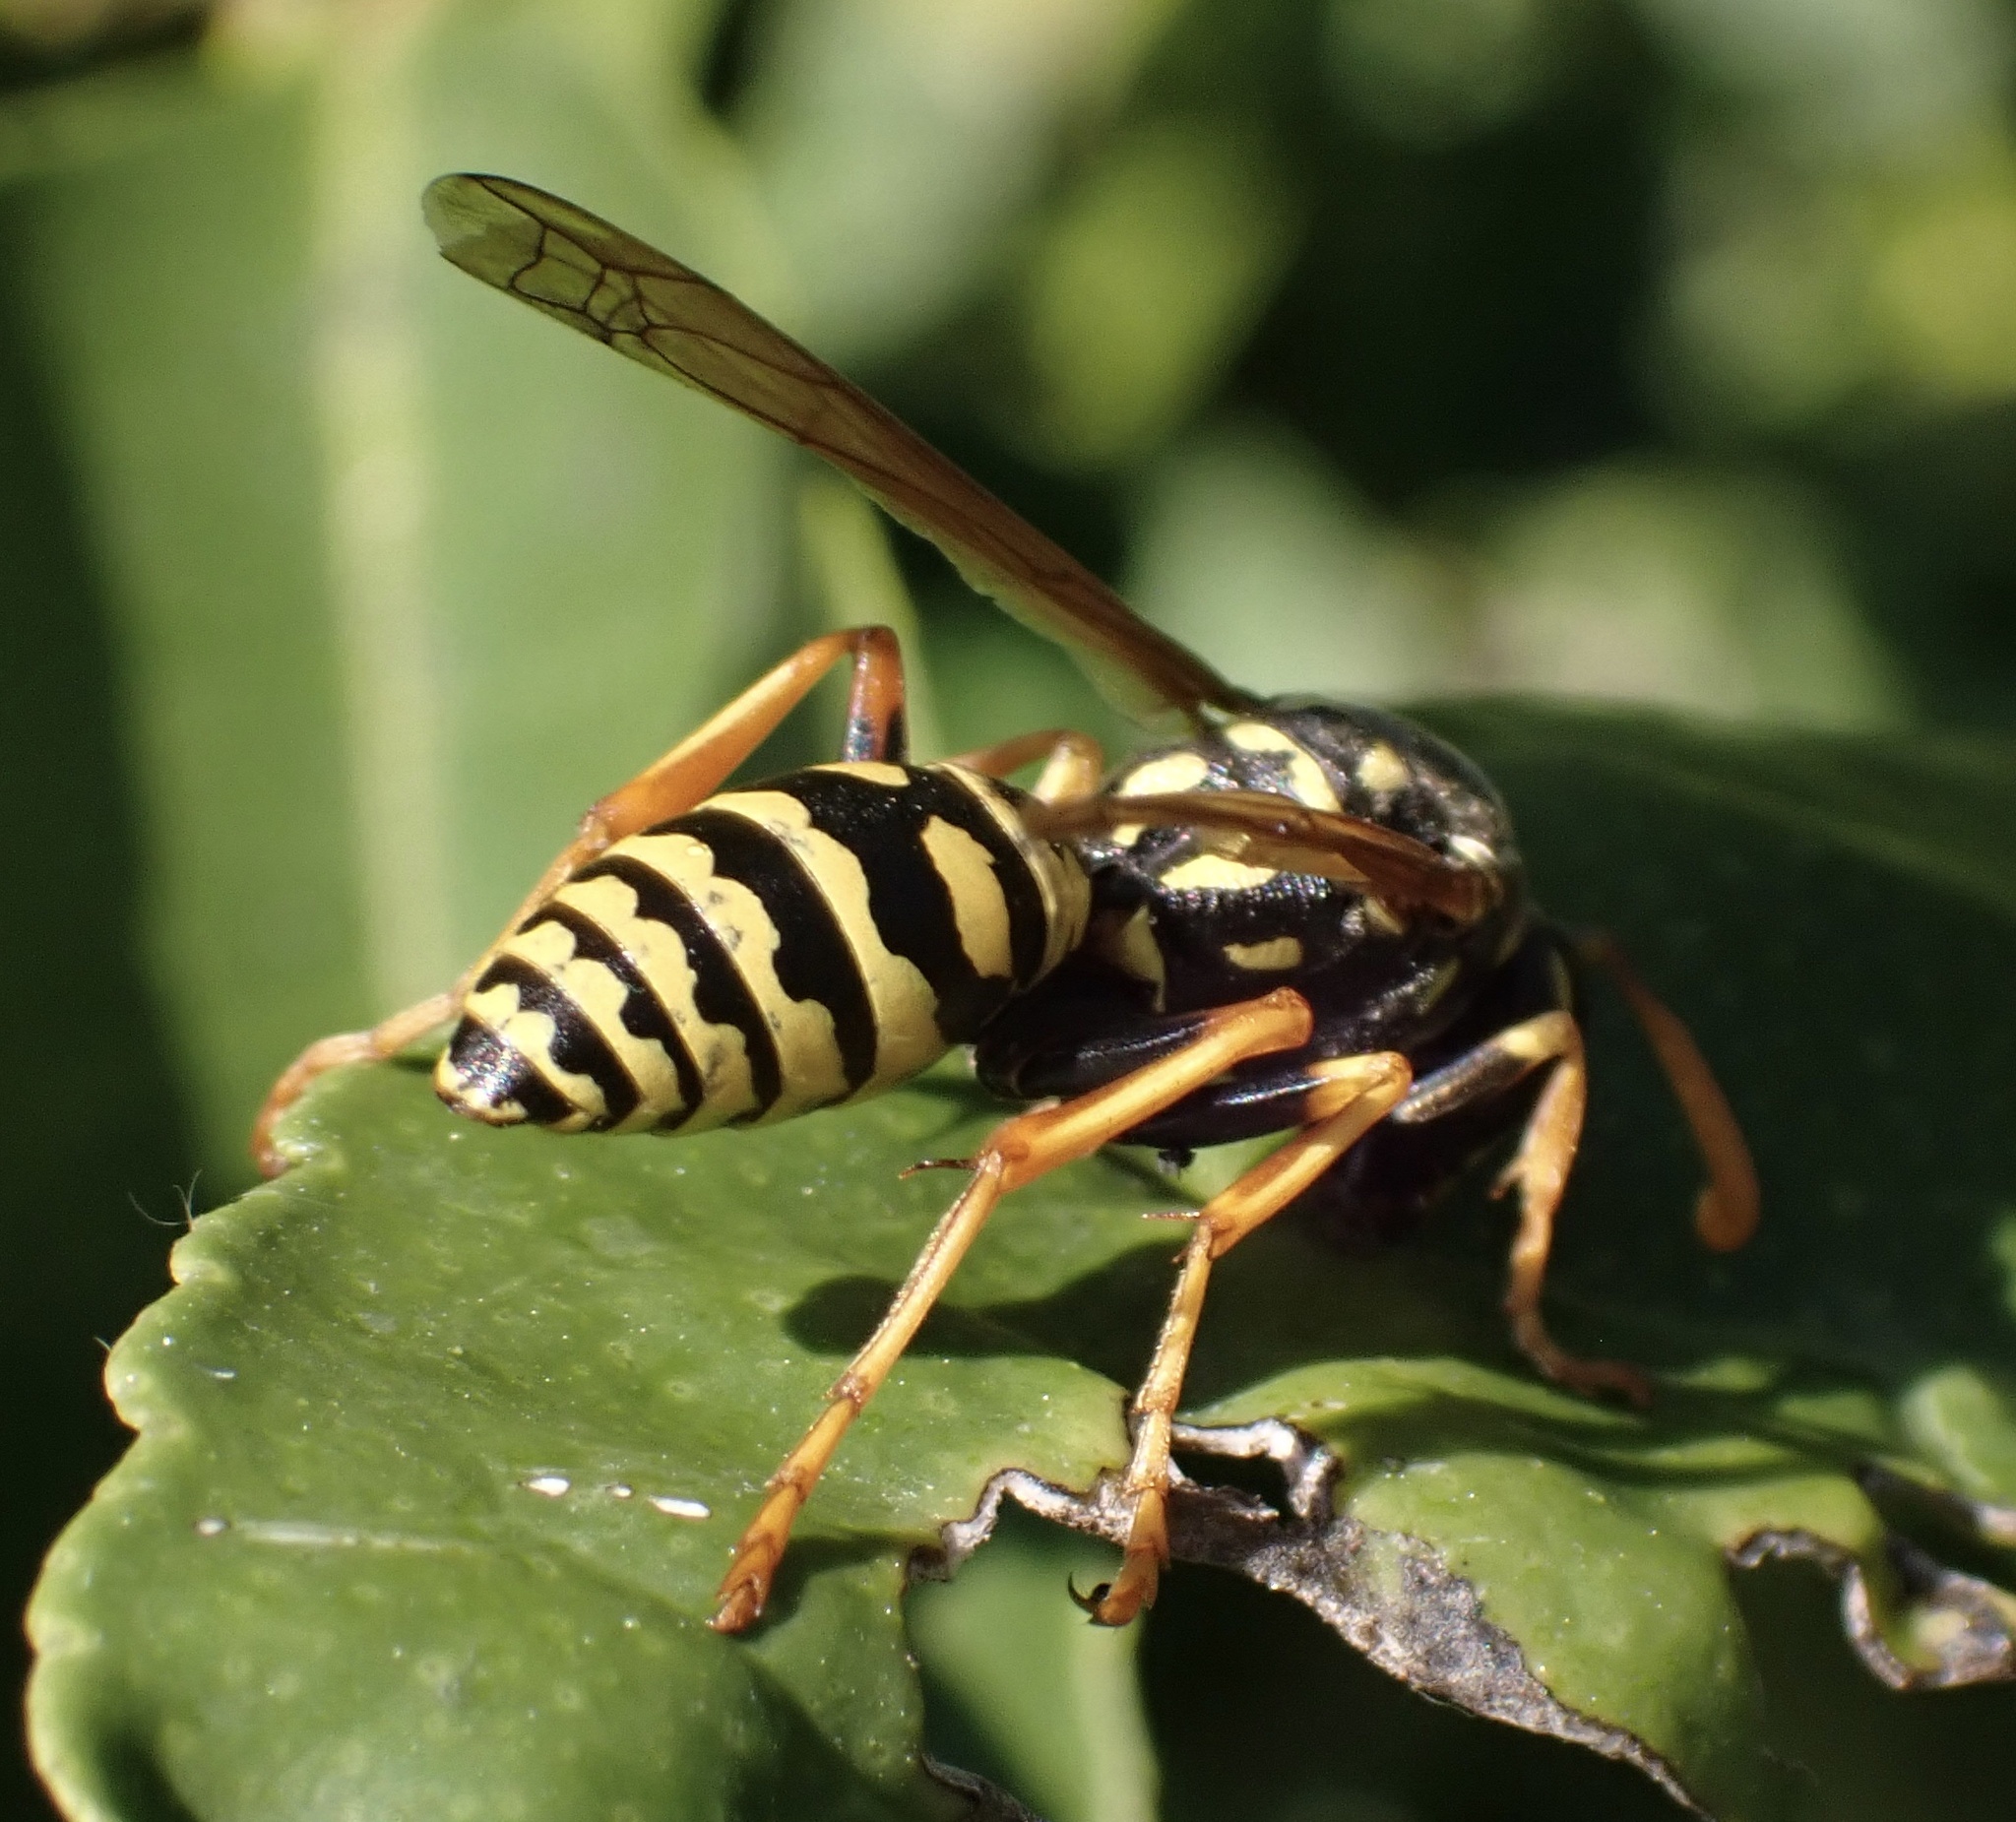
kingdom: Animalia
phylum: Arthropoda
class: Insecta
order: Hymenoptera
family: Eumenidae
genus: Polistes
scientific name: Polistes dominula
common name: Paper wasp
